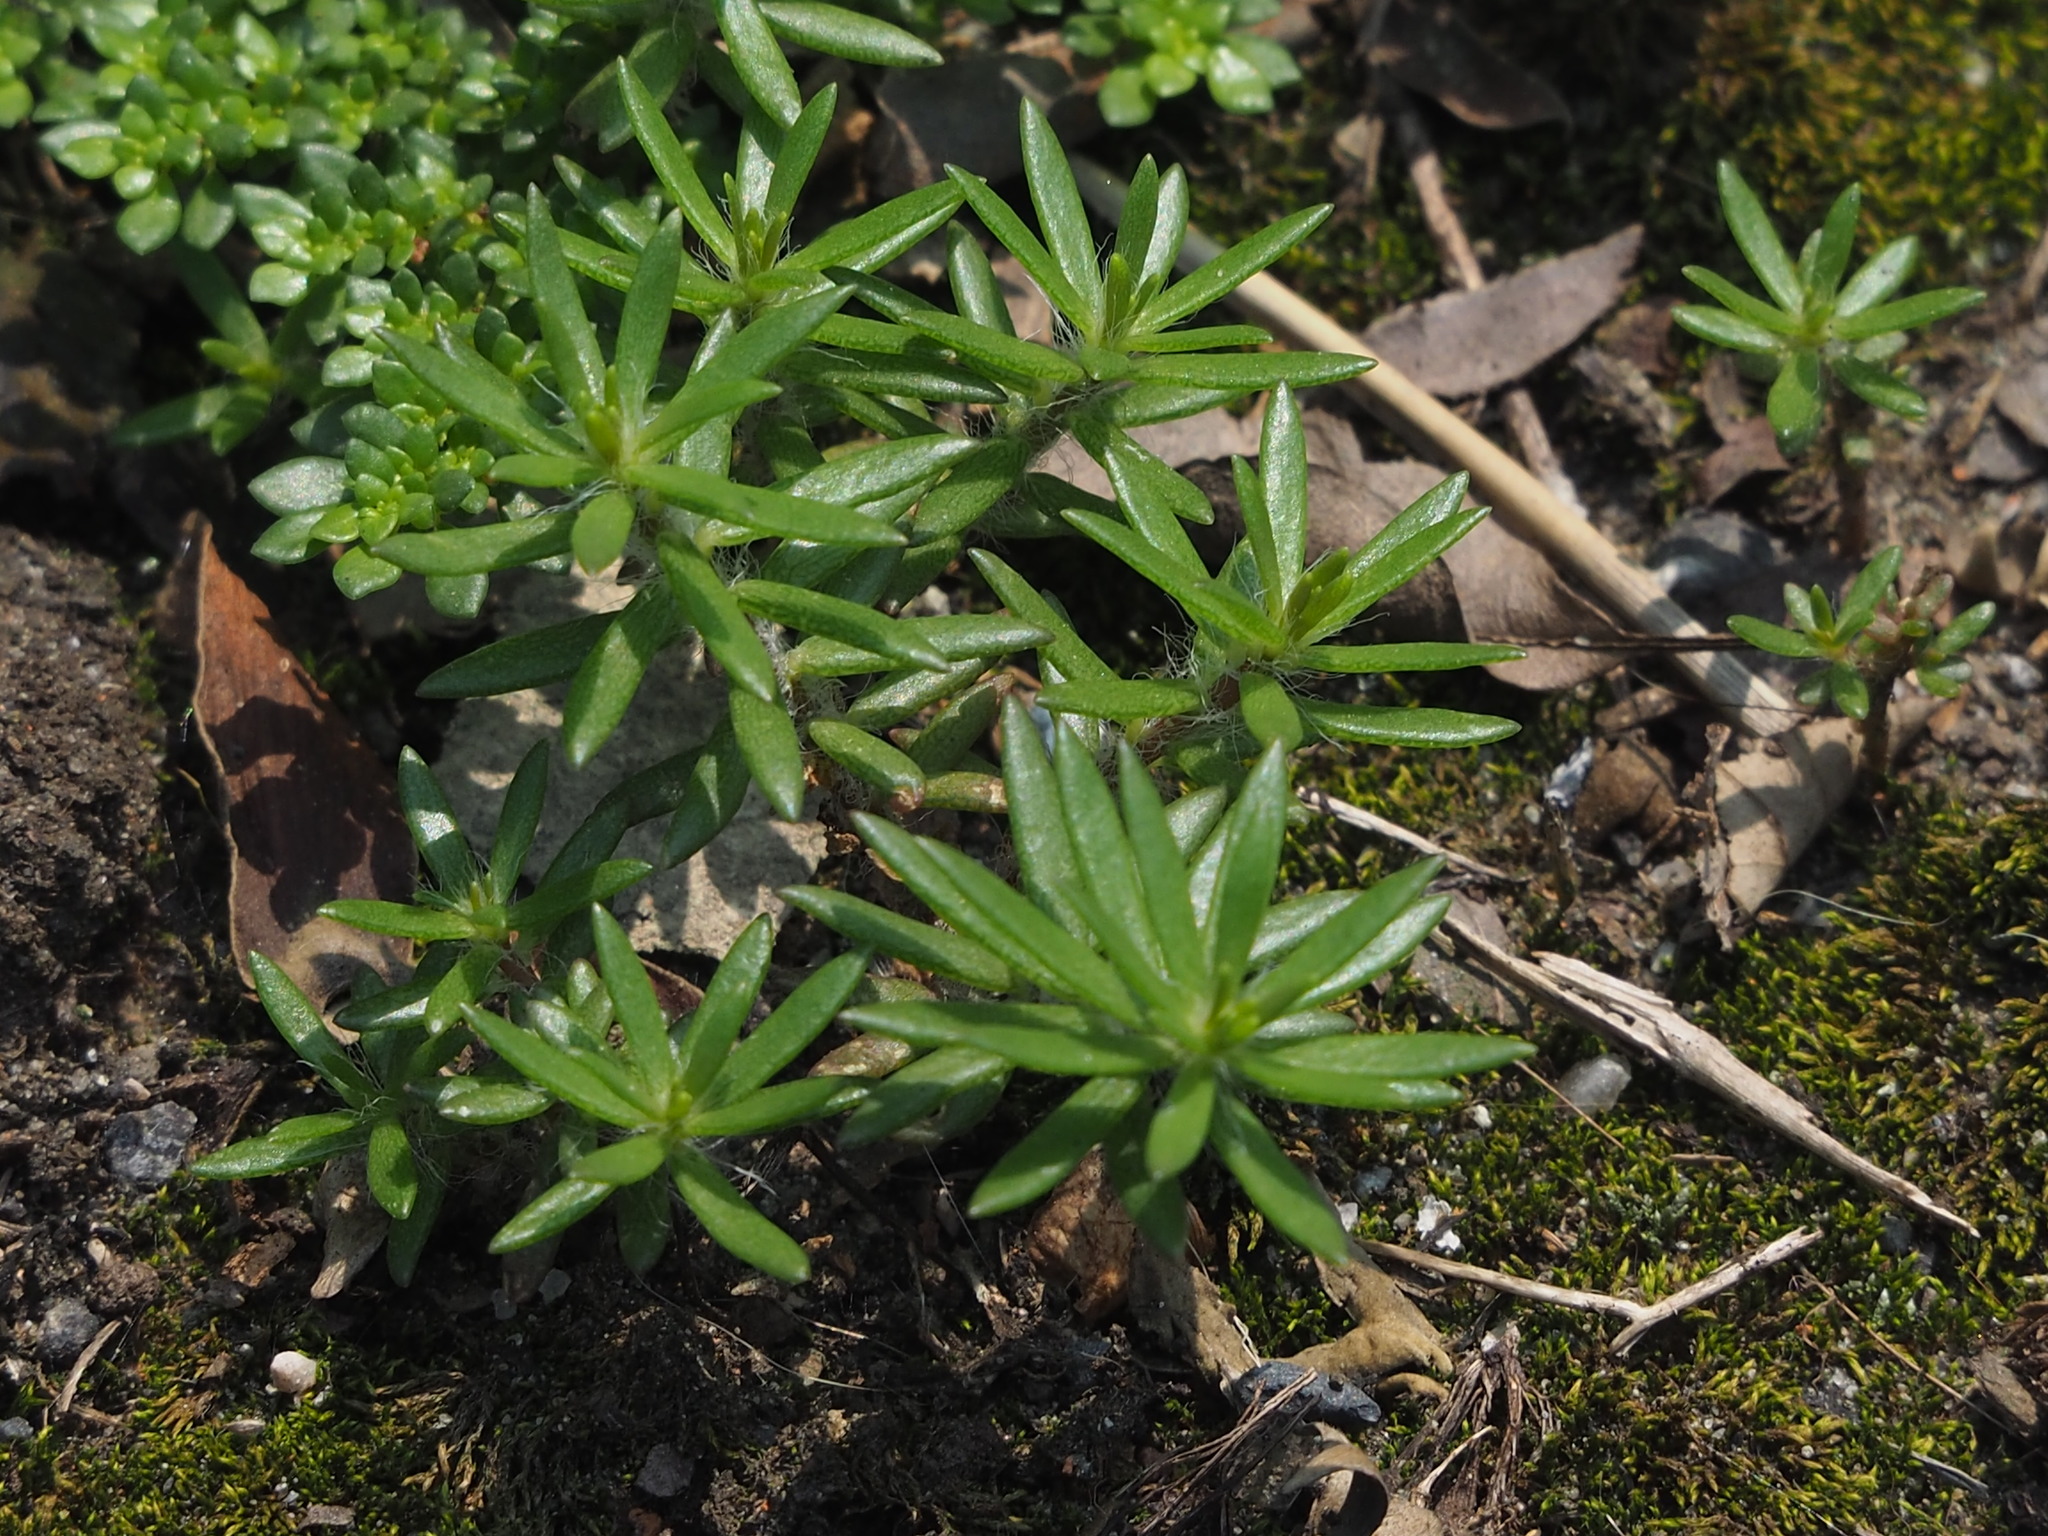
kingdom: Plantae
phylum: Tracheophyta
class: Magnoliopsida
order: Caryophyllales
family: Portulacaceae
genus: Portulaca
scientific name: Portulaca pilosa
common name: Kiss me quick
